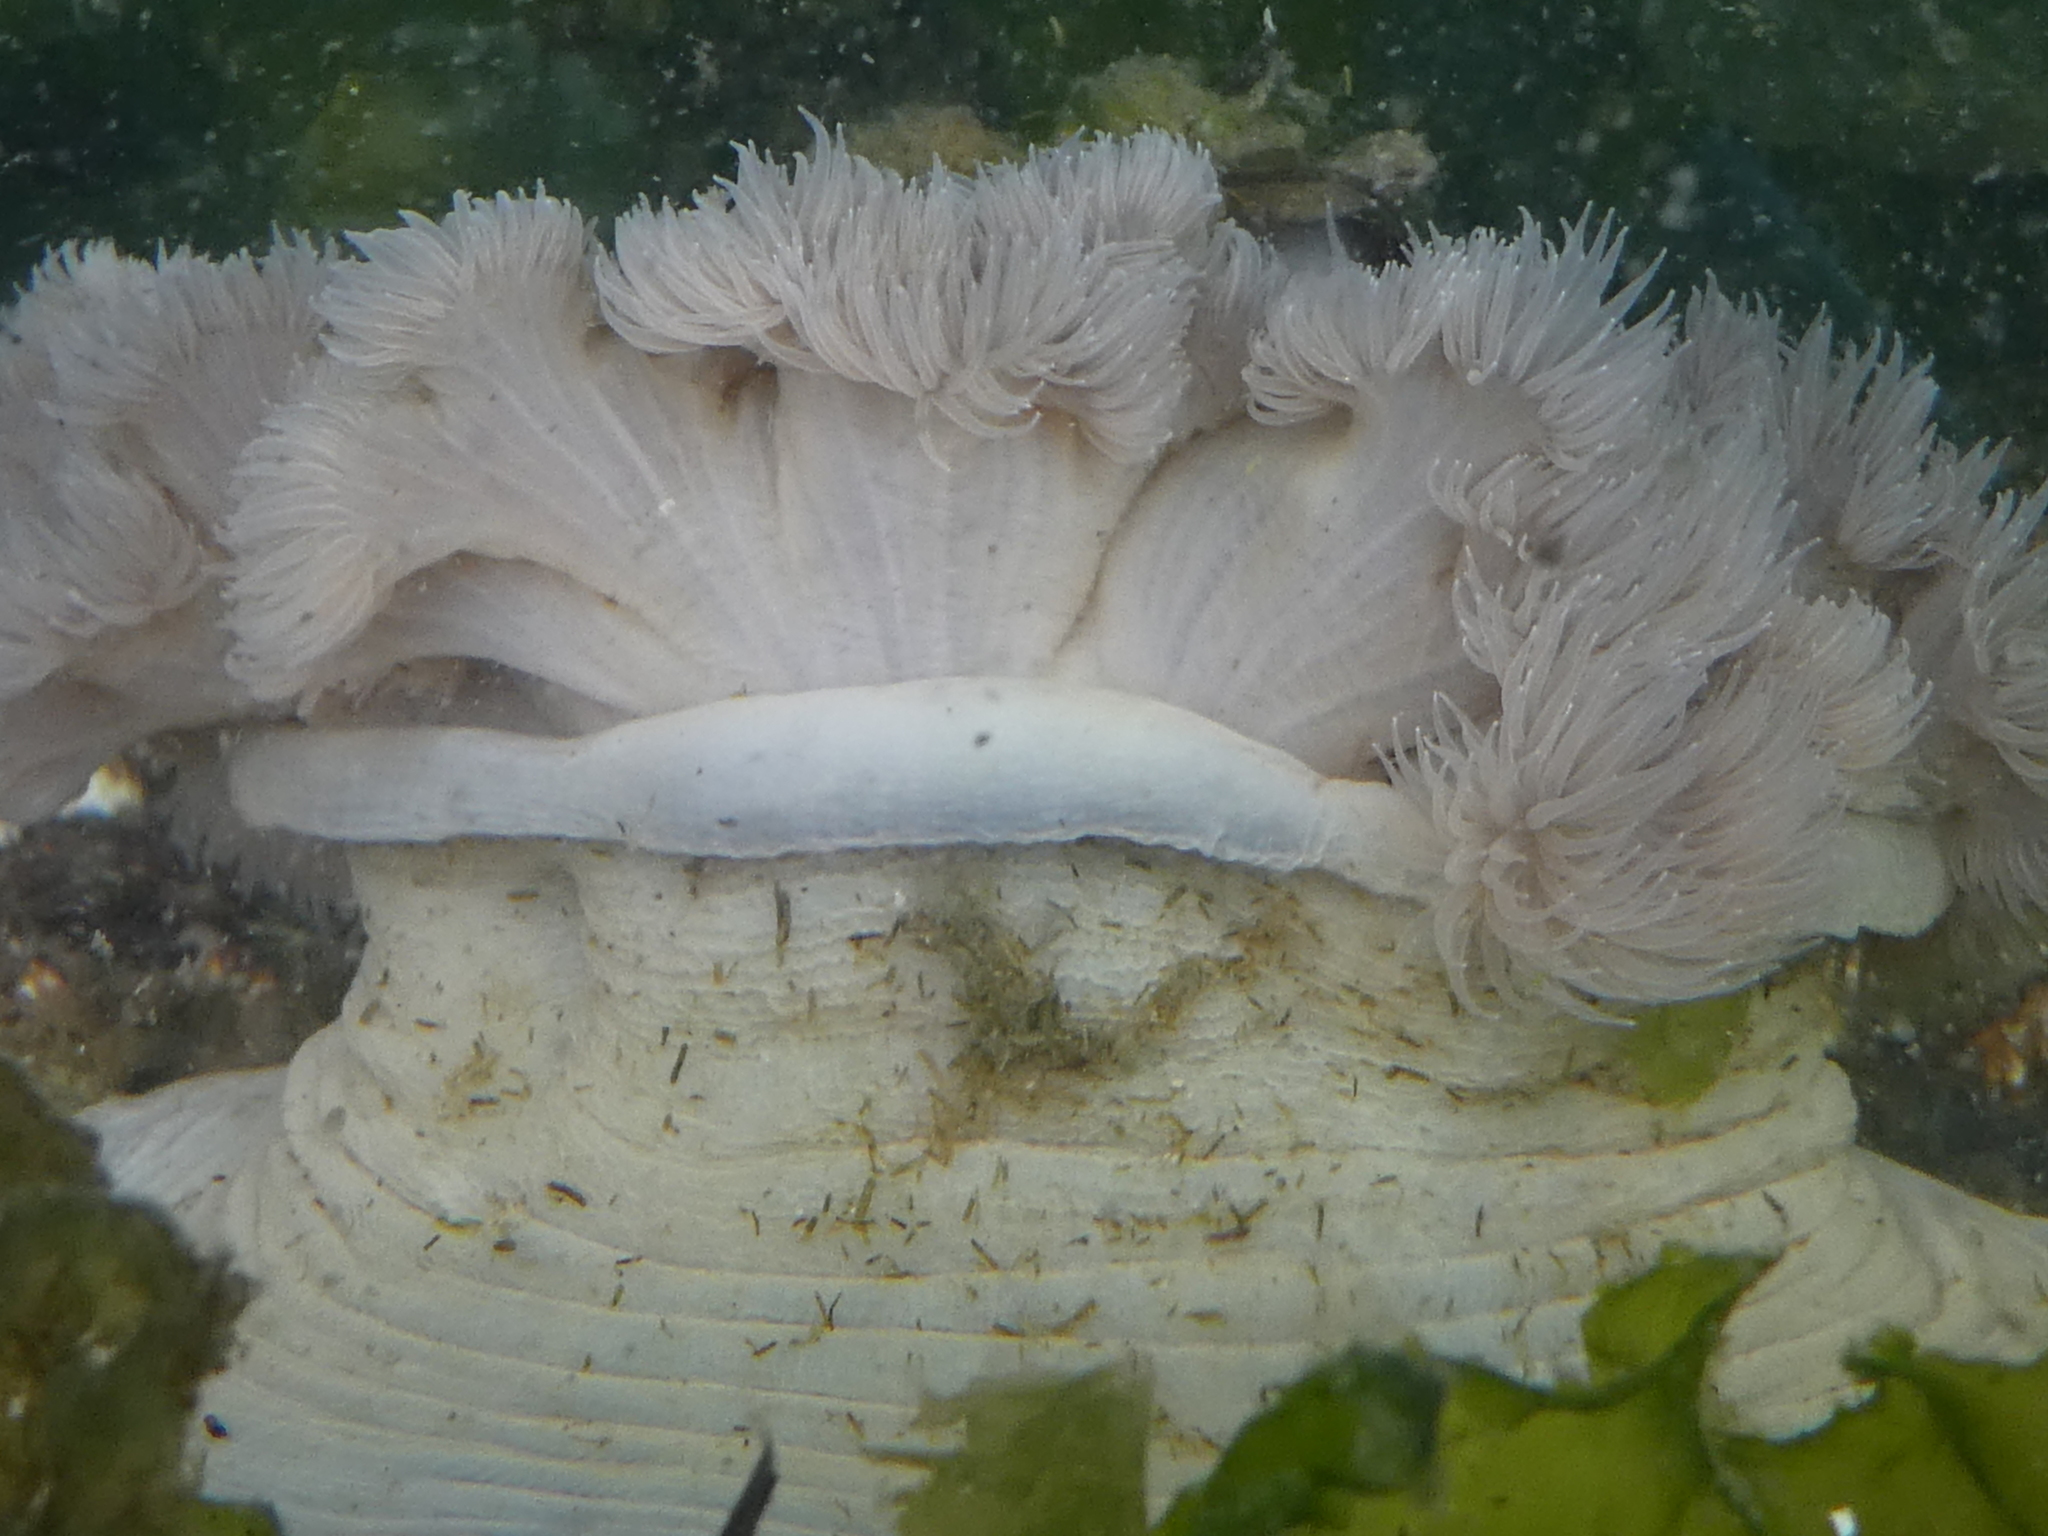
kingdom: Animalia
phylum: Cnidaria
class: Anthozoa
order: Actiniaria
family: Metridiidae
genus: Metridium
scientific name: Metridium senile
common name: Clonal plumose anemone
